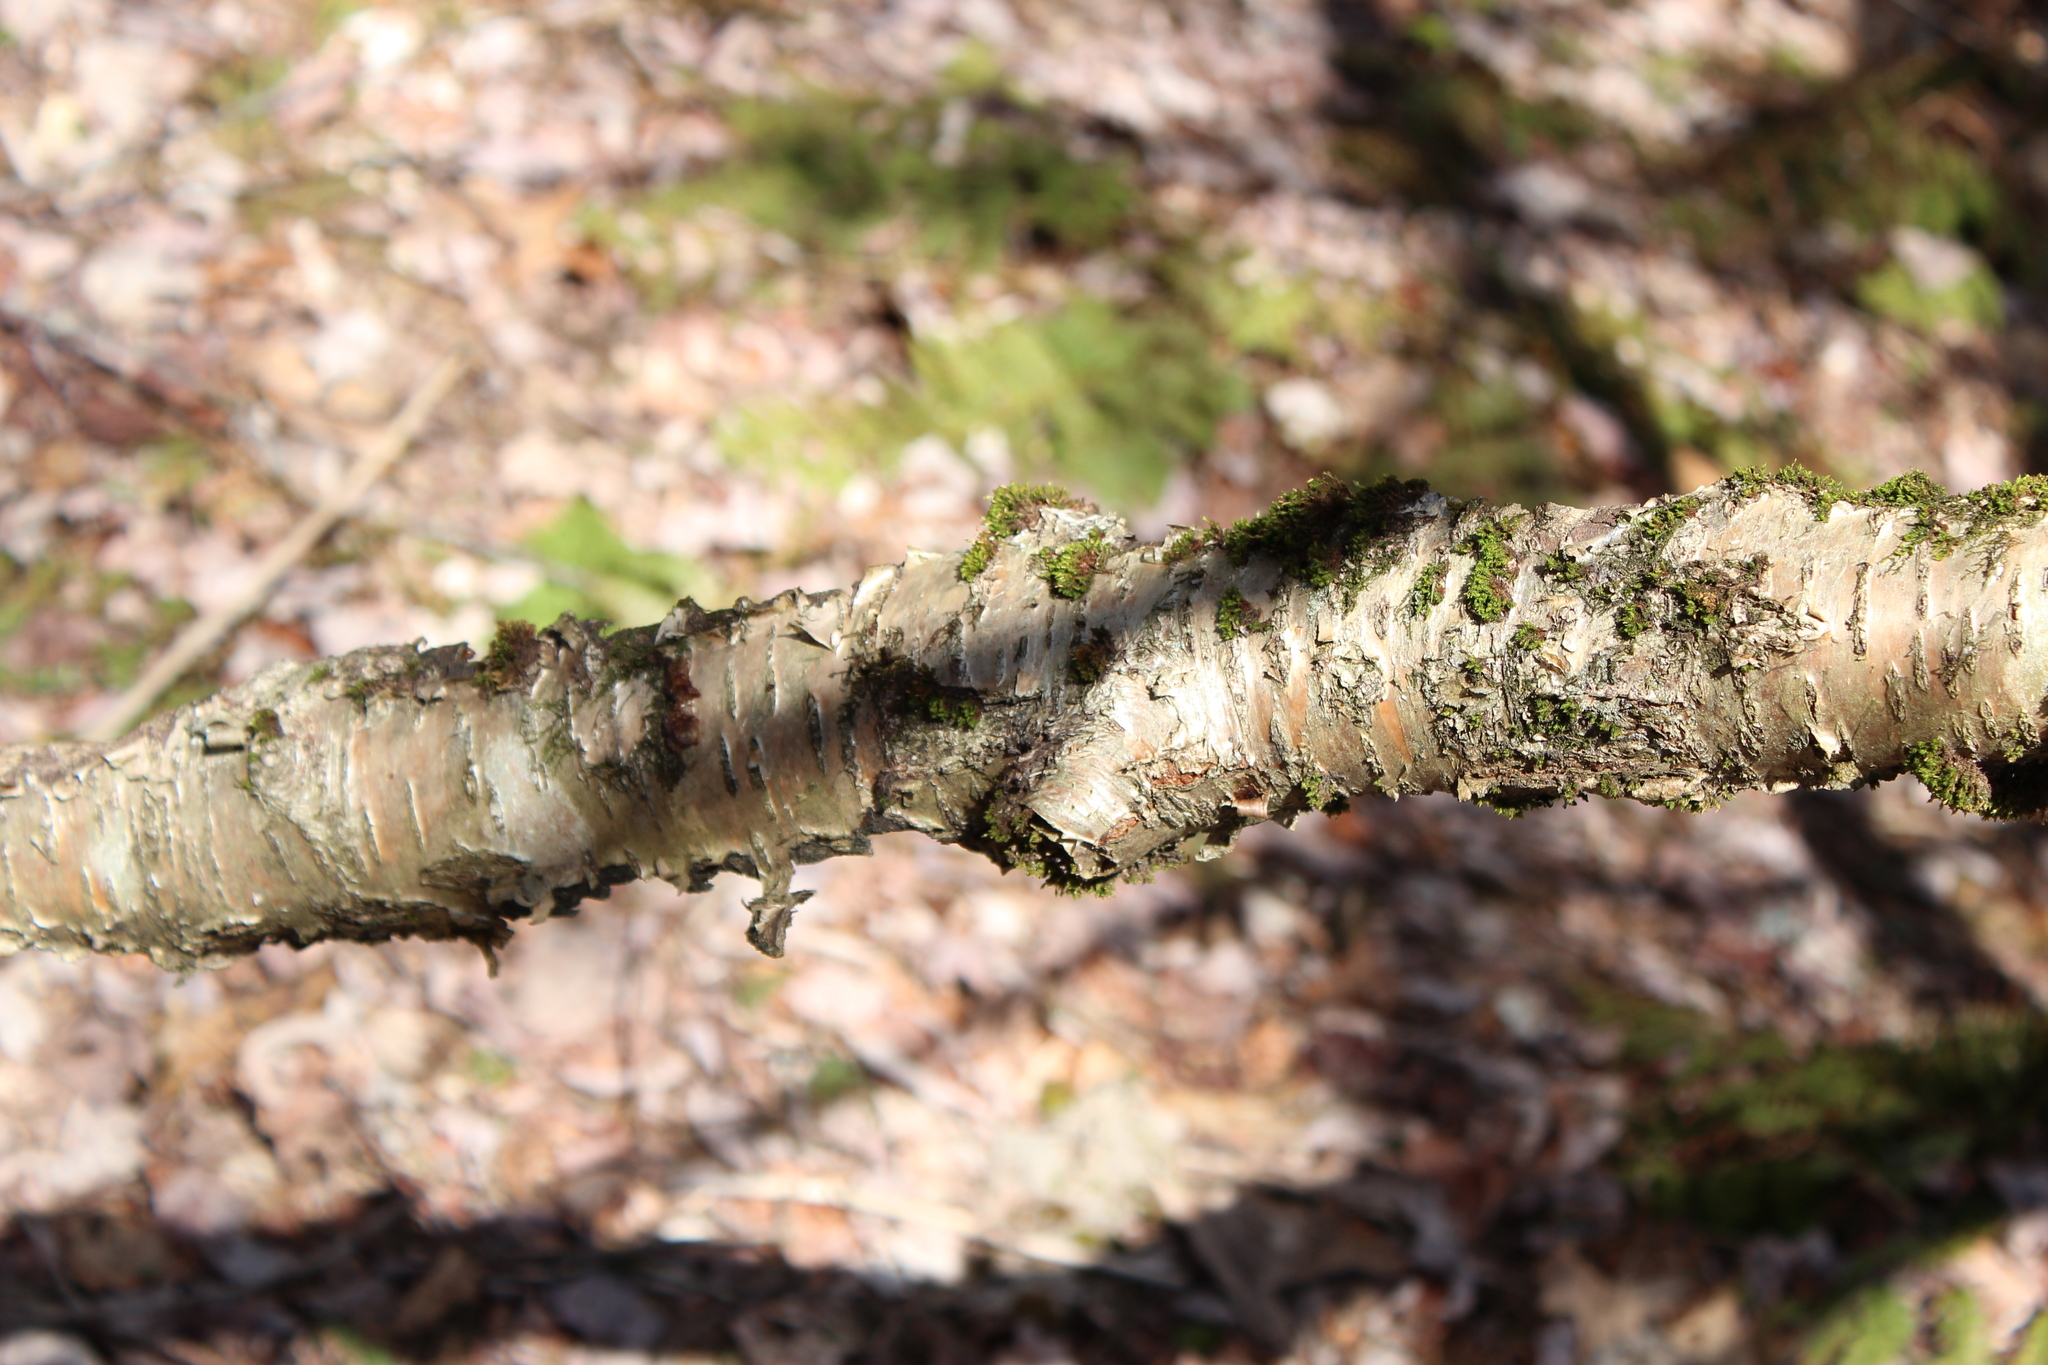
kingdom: Plantae
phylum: Tracheophyta
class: Magnoliopsida
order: Fagales
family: Betulaceae
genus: Betula
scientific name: Betula alleghaniensis
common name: Yellow birch
